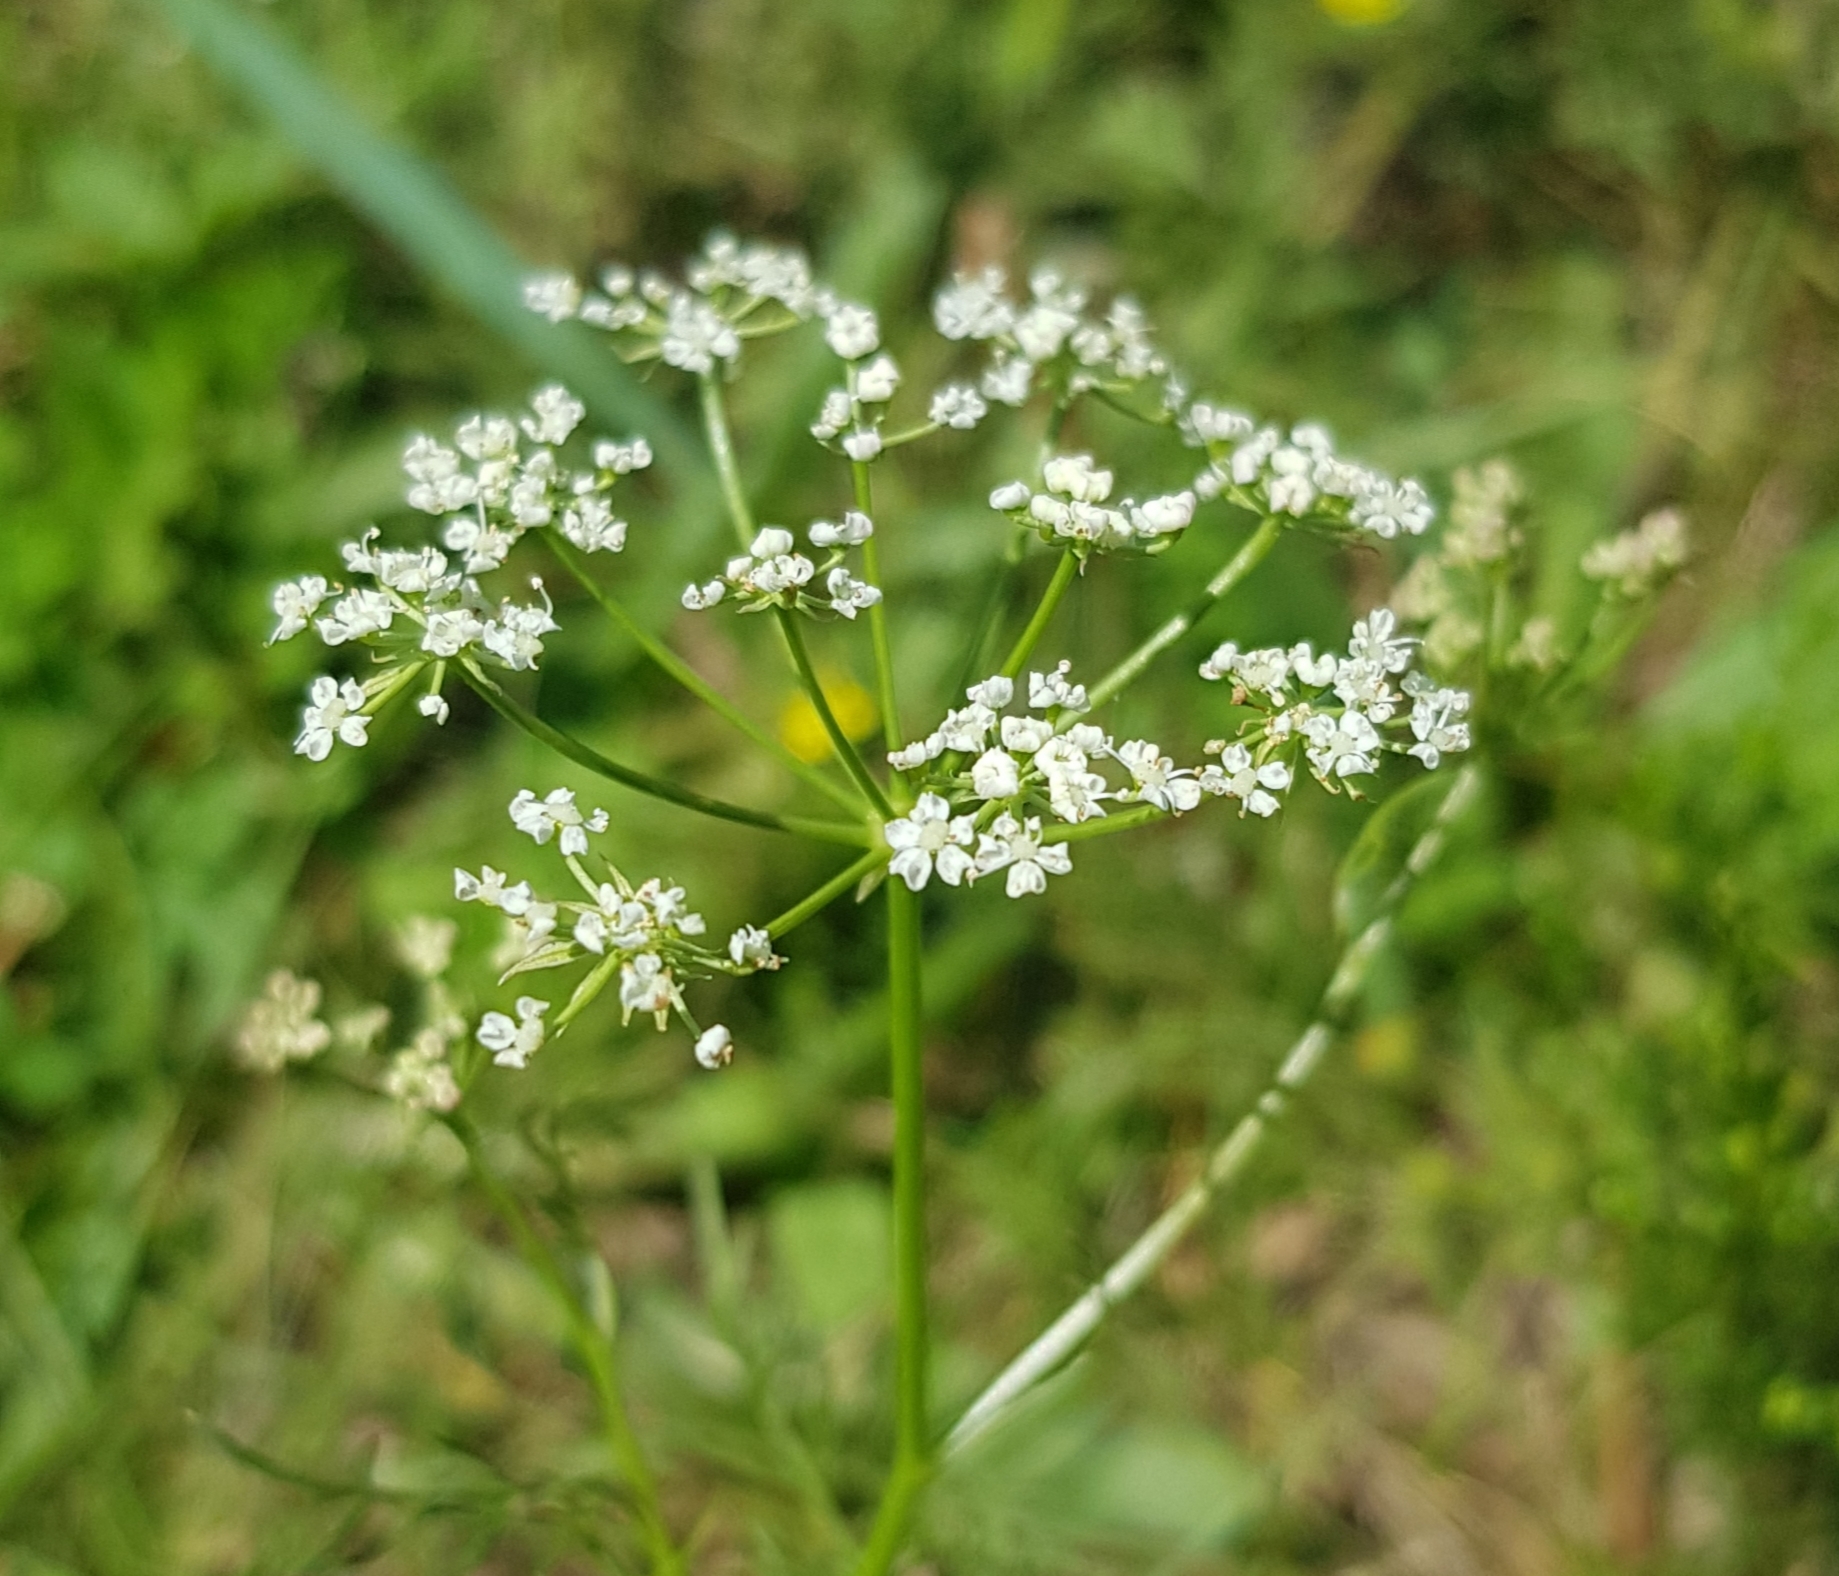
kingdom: Plantae
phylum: Tracheophyta
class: Magnoliopsida
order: Apiales
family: Apiaceae
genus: Carum
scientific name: Carum carvi
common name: Caraway
